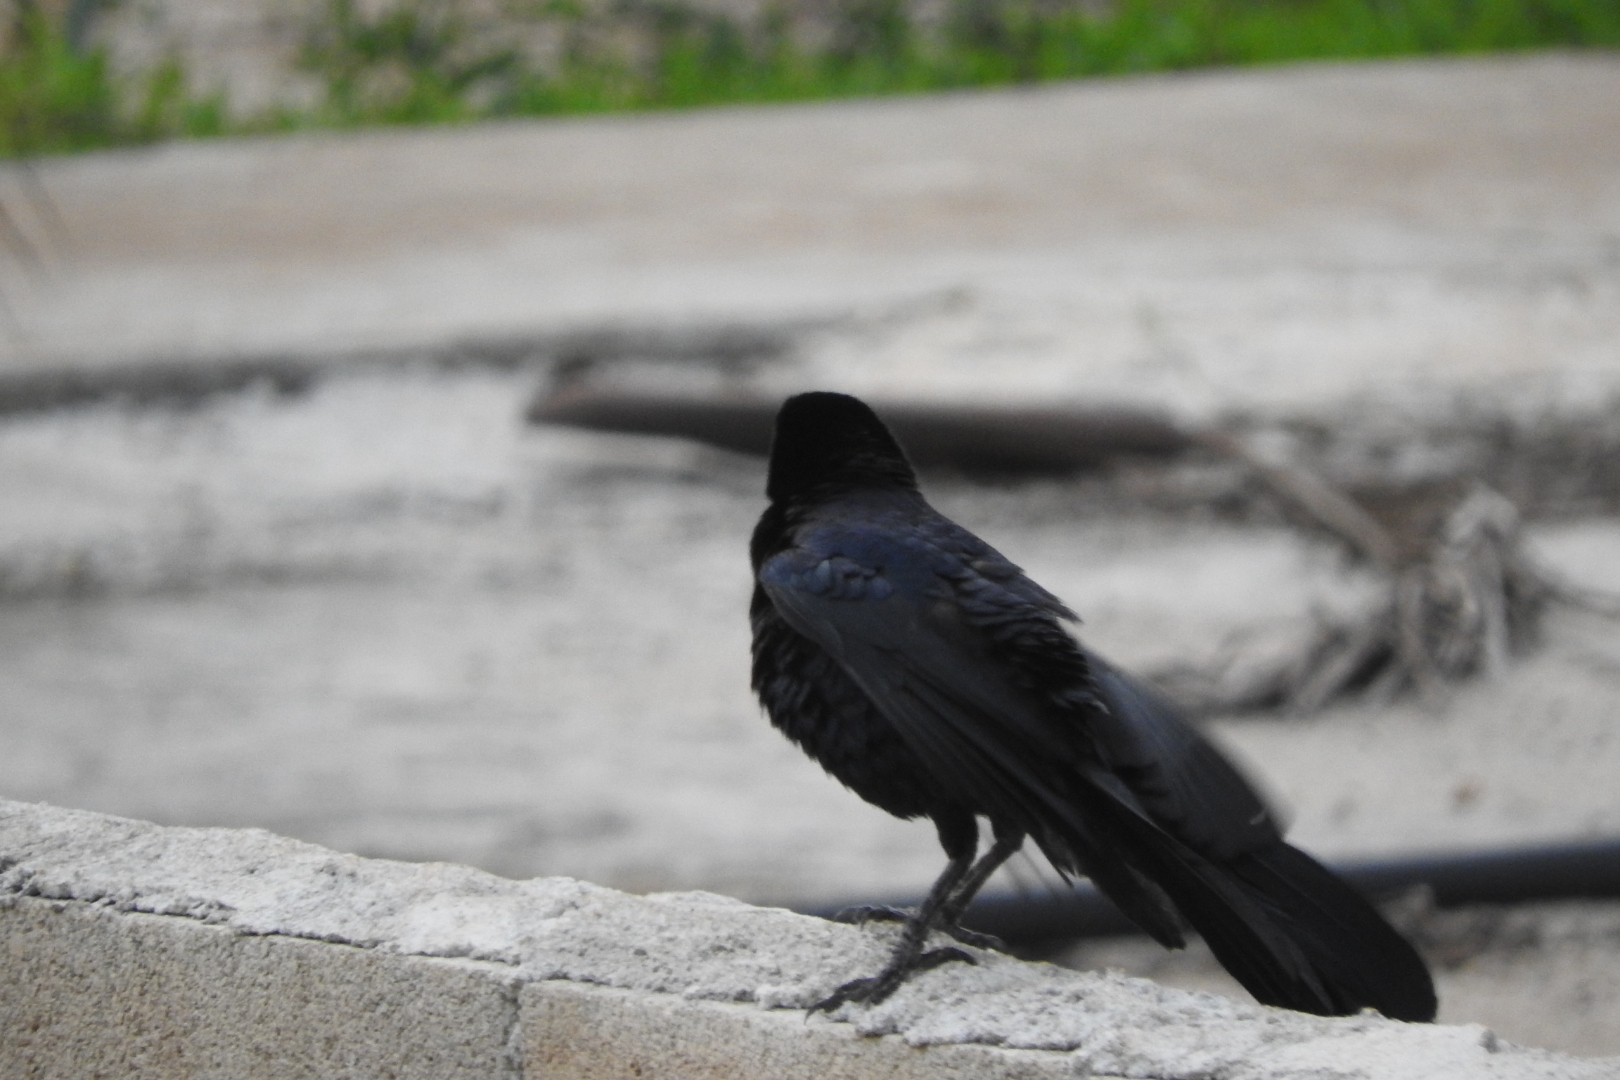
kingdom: Animalia
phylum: Chordata
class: Aves
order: Passeriformes
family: Icteridae
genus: Quiscalus
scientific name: Quiscalus mexicanus
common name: Great-tailed grackle
